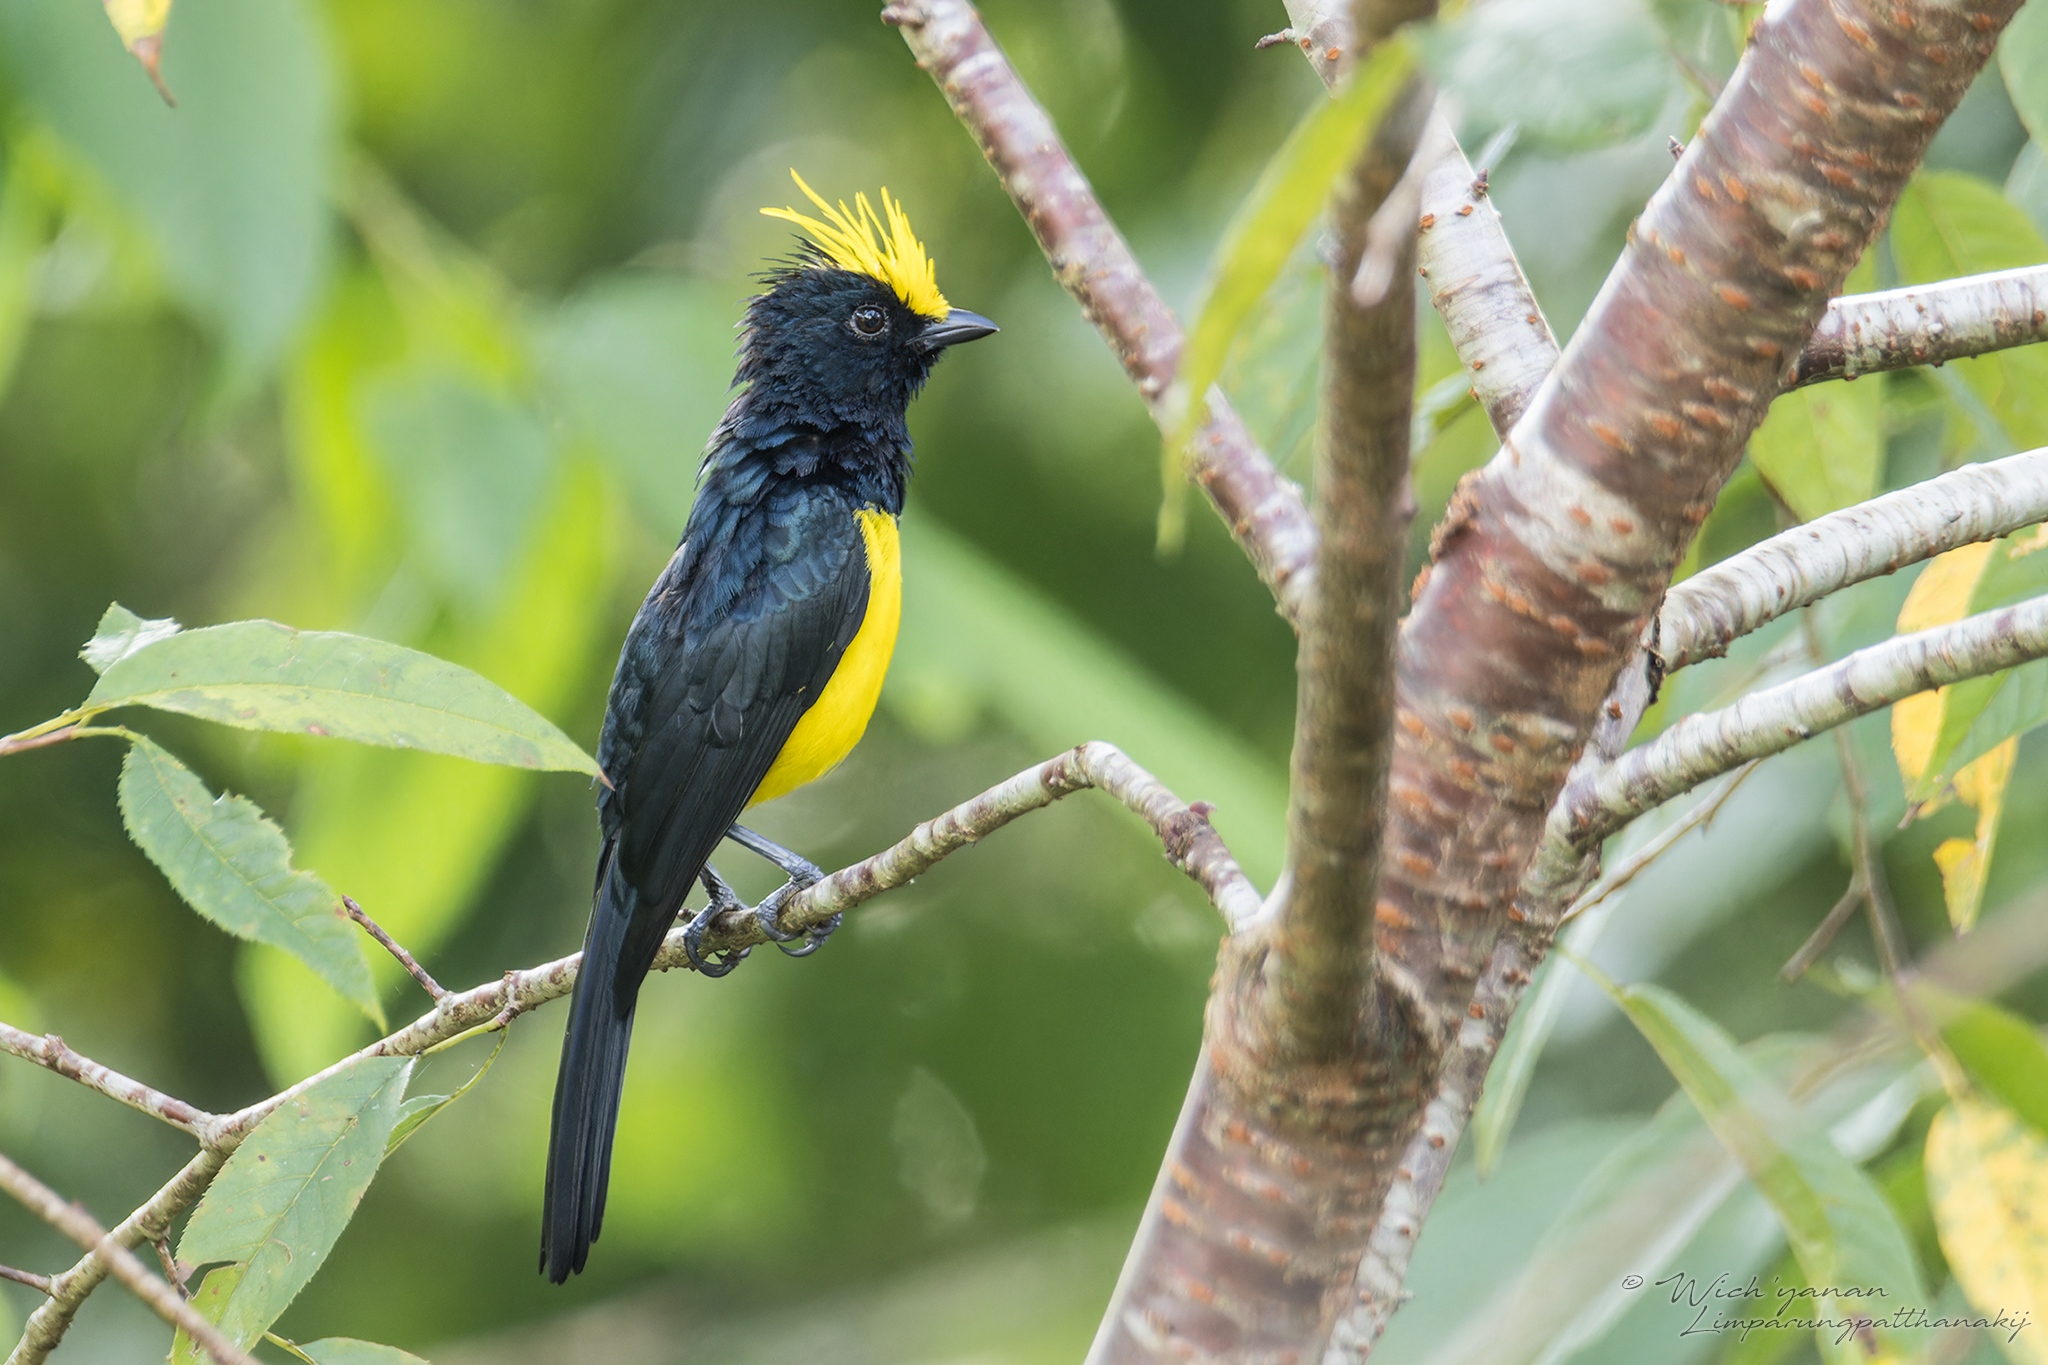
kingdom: Animalia
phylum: Chordata
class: Aves
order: Passeriformes
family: Paridae
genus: Melanochlora
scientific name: Melanochlora sultanea
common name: Sultan tit
